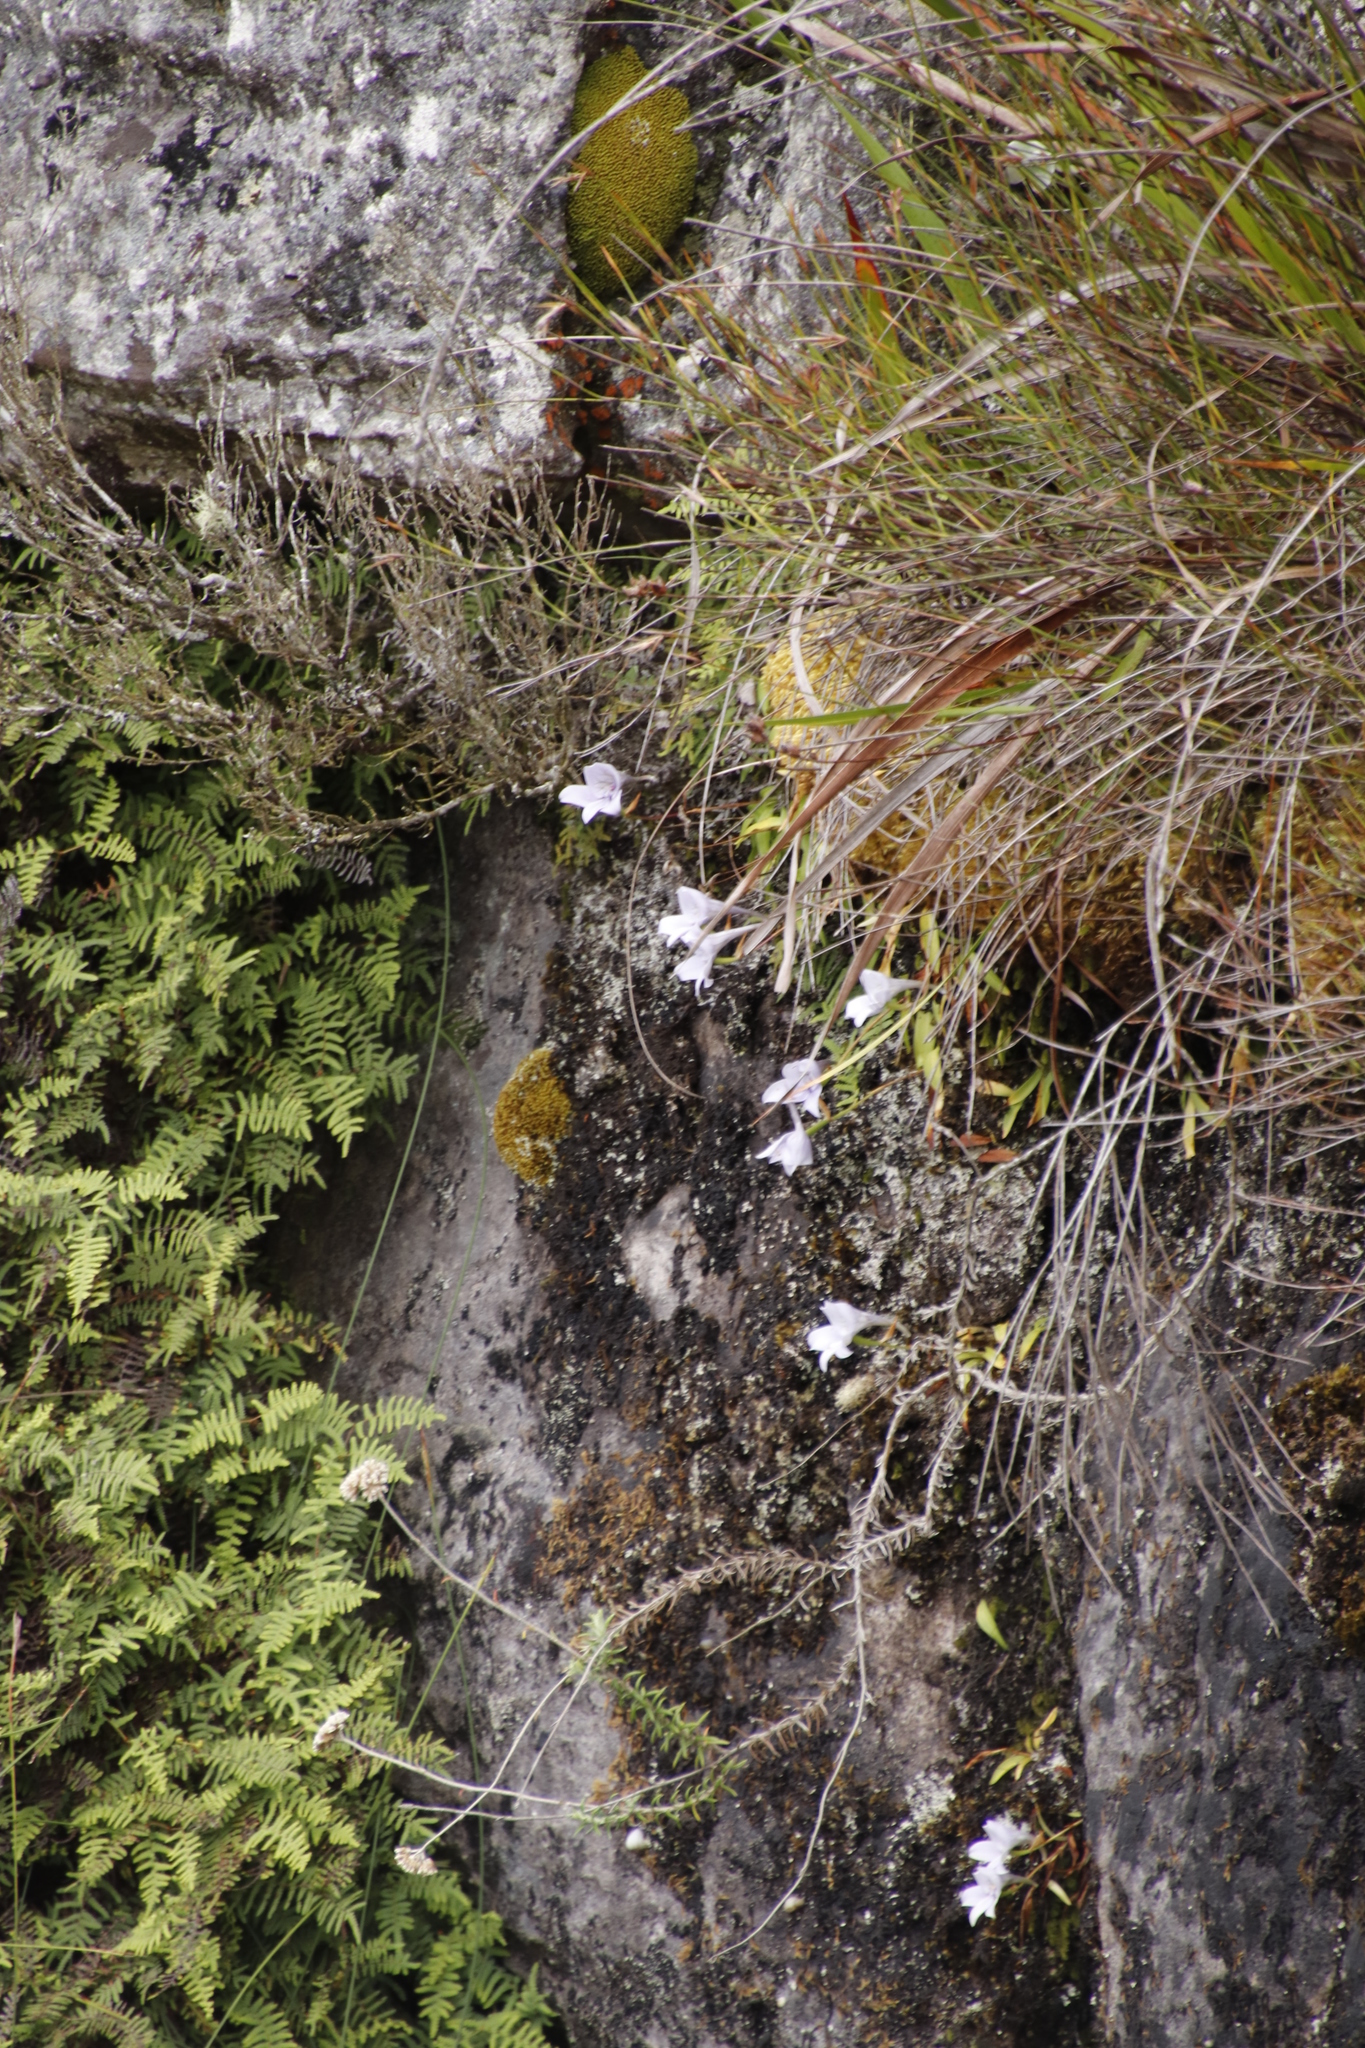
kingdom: Plantae
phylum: Tracheophyta
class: Liliopsida
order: Asparagales
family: Orchidaceae
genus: Disa
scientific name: Disa longicornu
